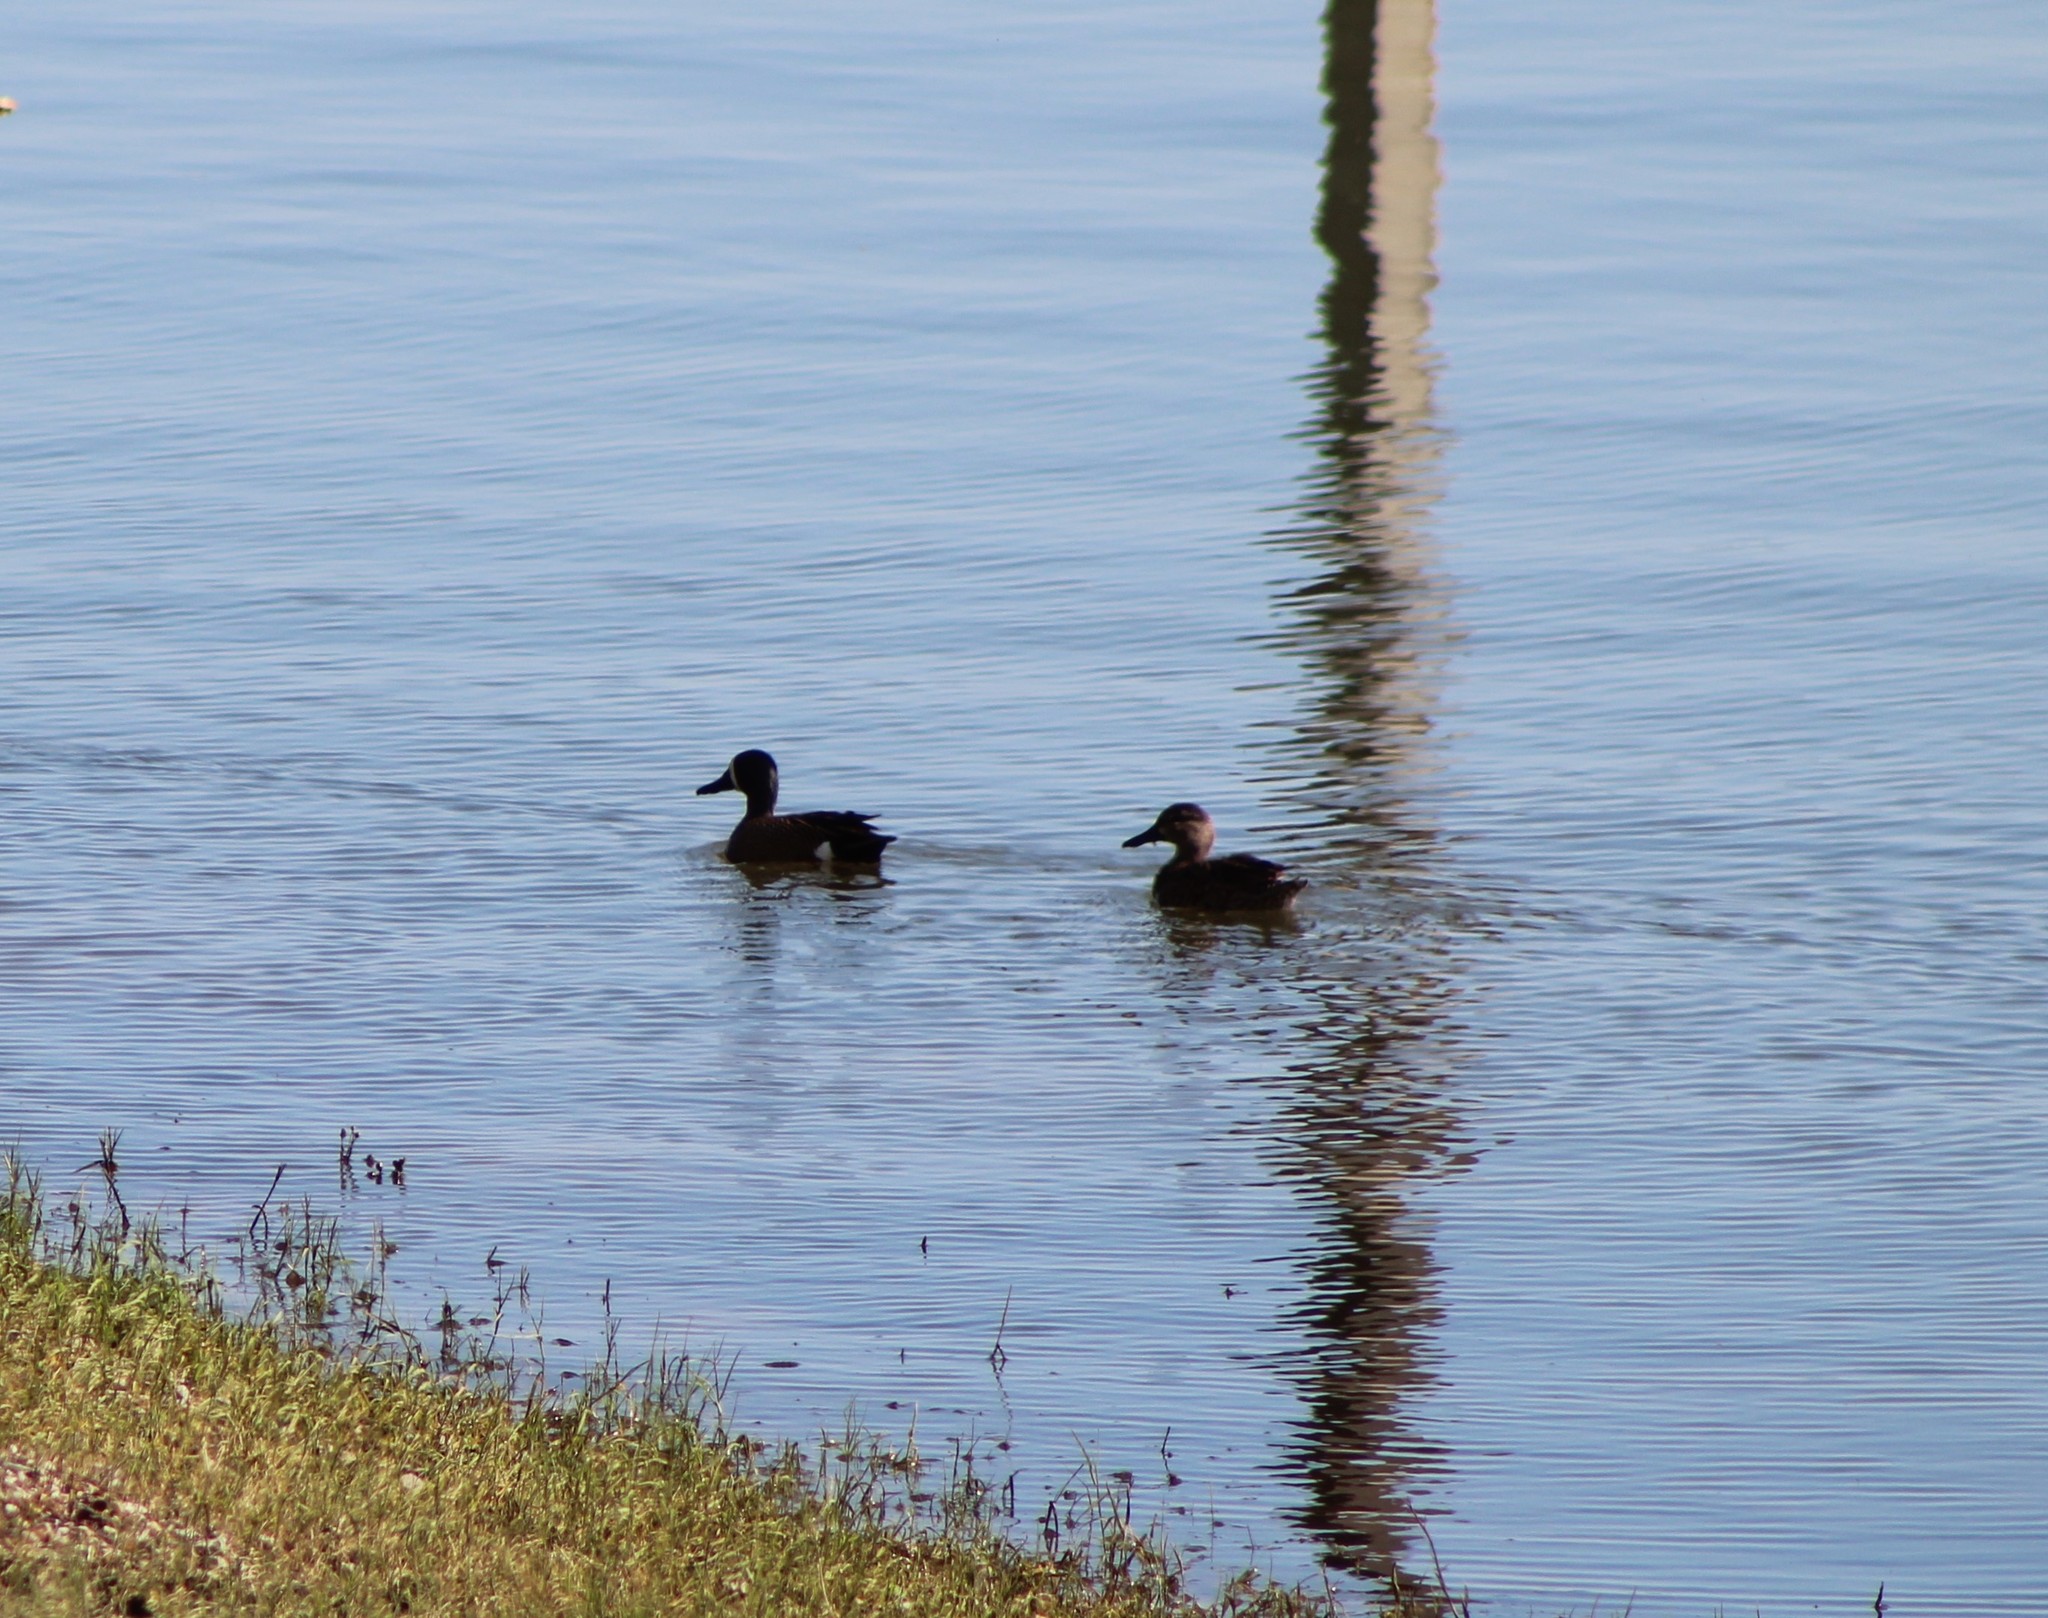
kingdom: Animalia
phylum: Chordata
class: Aves
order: Anseriformes
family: Anatidae
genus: Spatula
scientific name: Spatula discors
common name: Blue-winged teal
